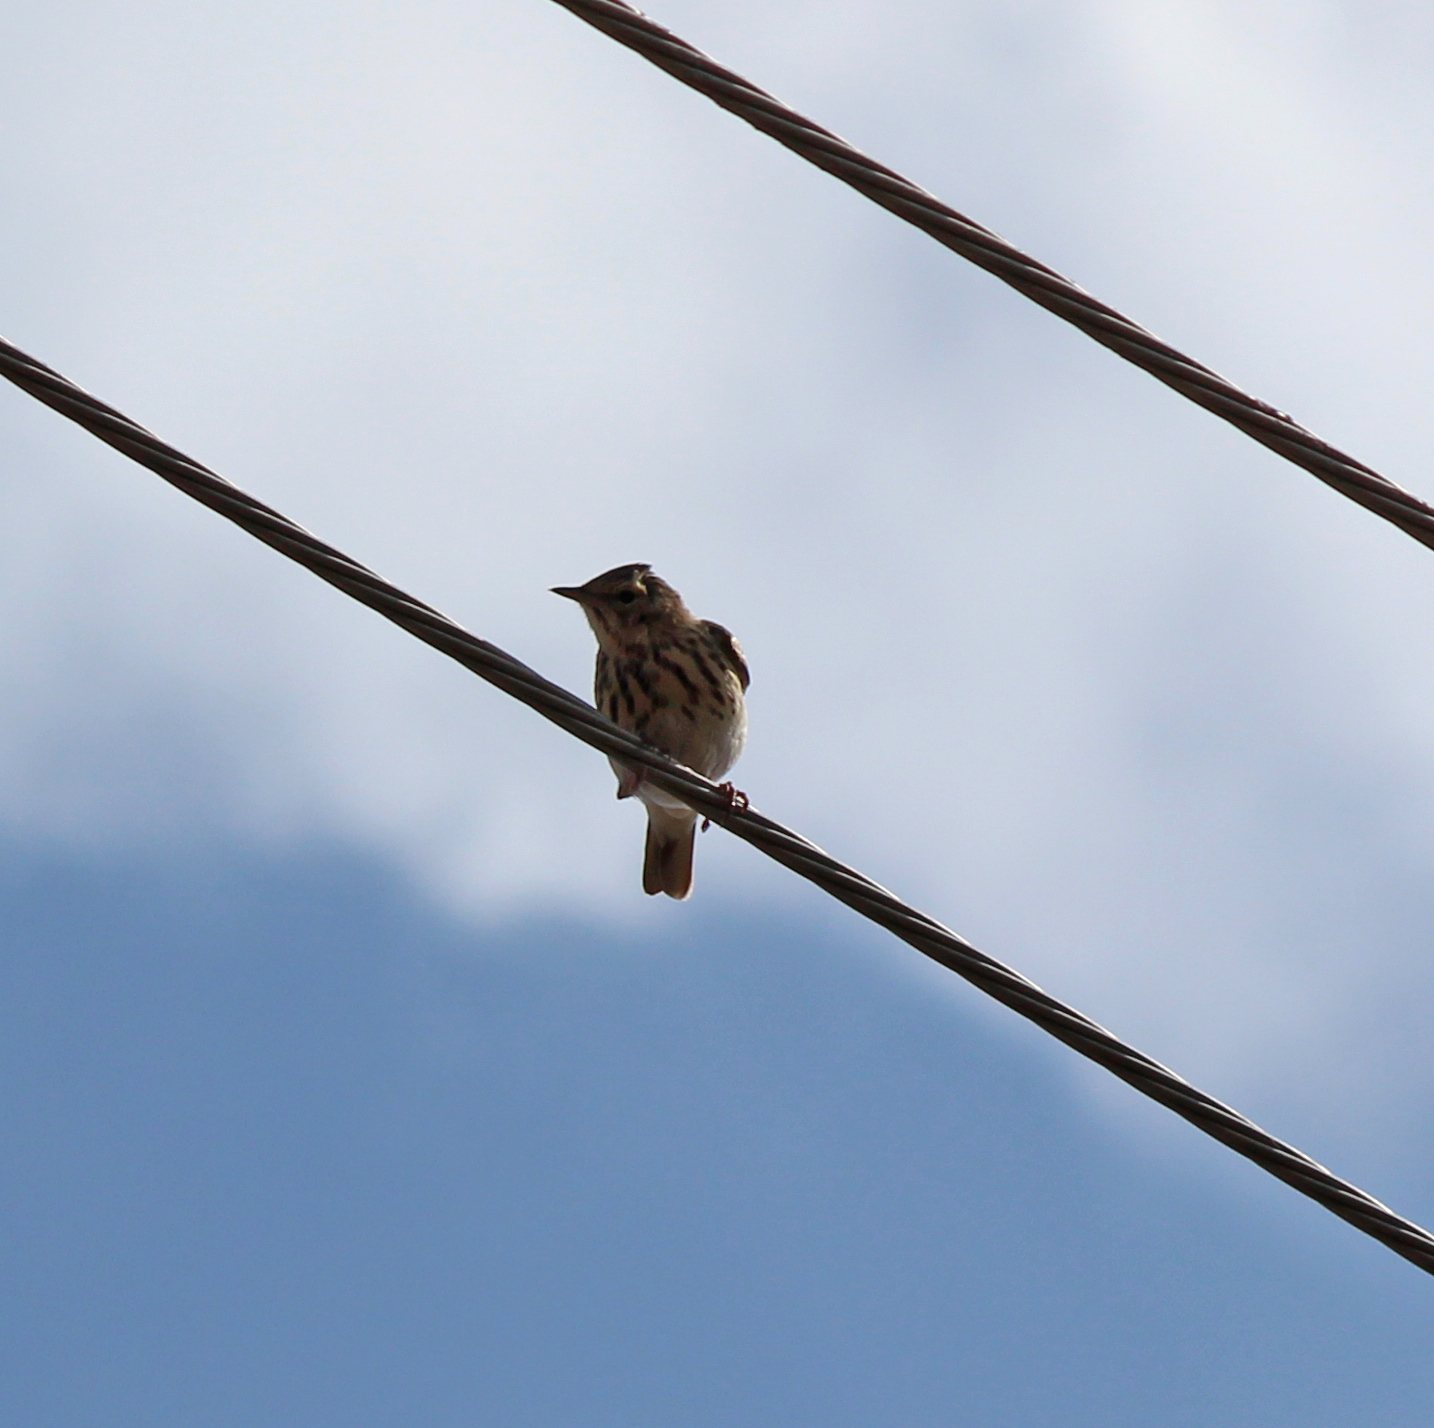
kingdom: Animalia
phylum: Chordata
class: Aves
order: Passeriformes
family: Motacillidae
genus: Anthus
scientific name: Anthus trivialis
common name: Tree pipit
